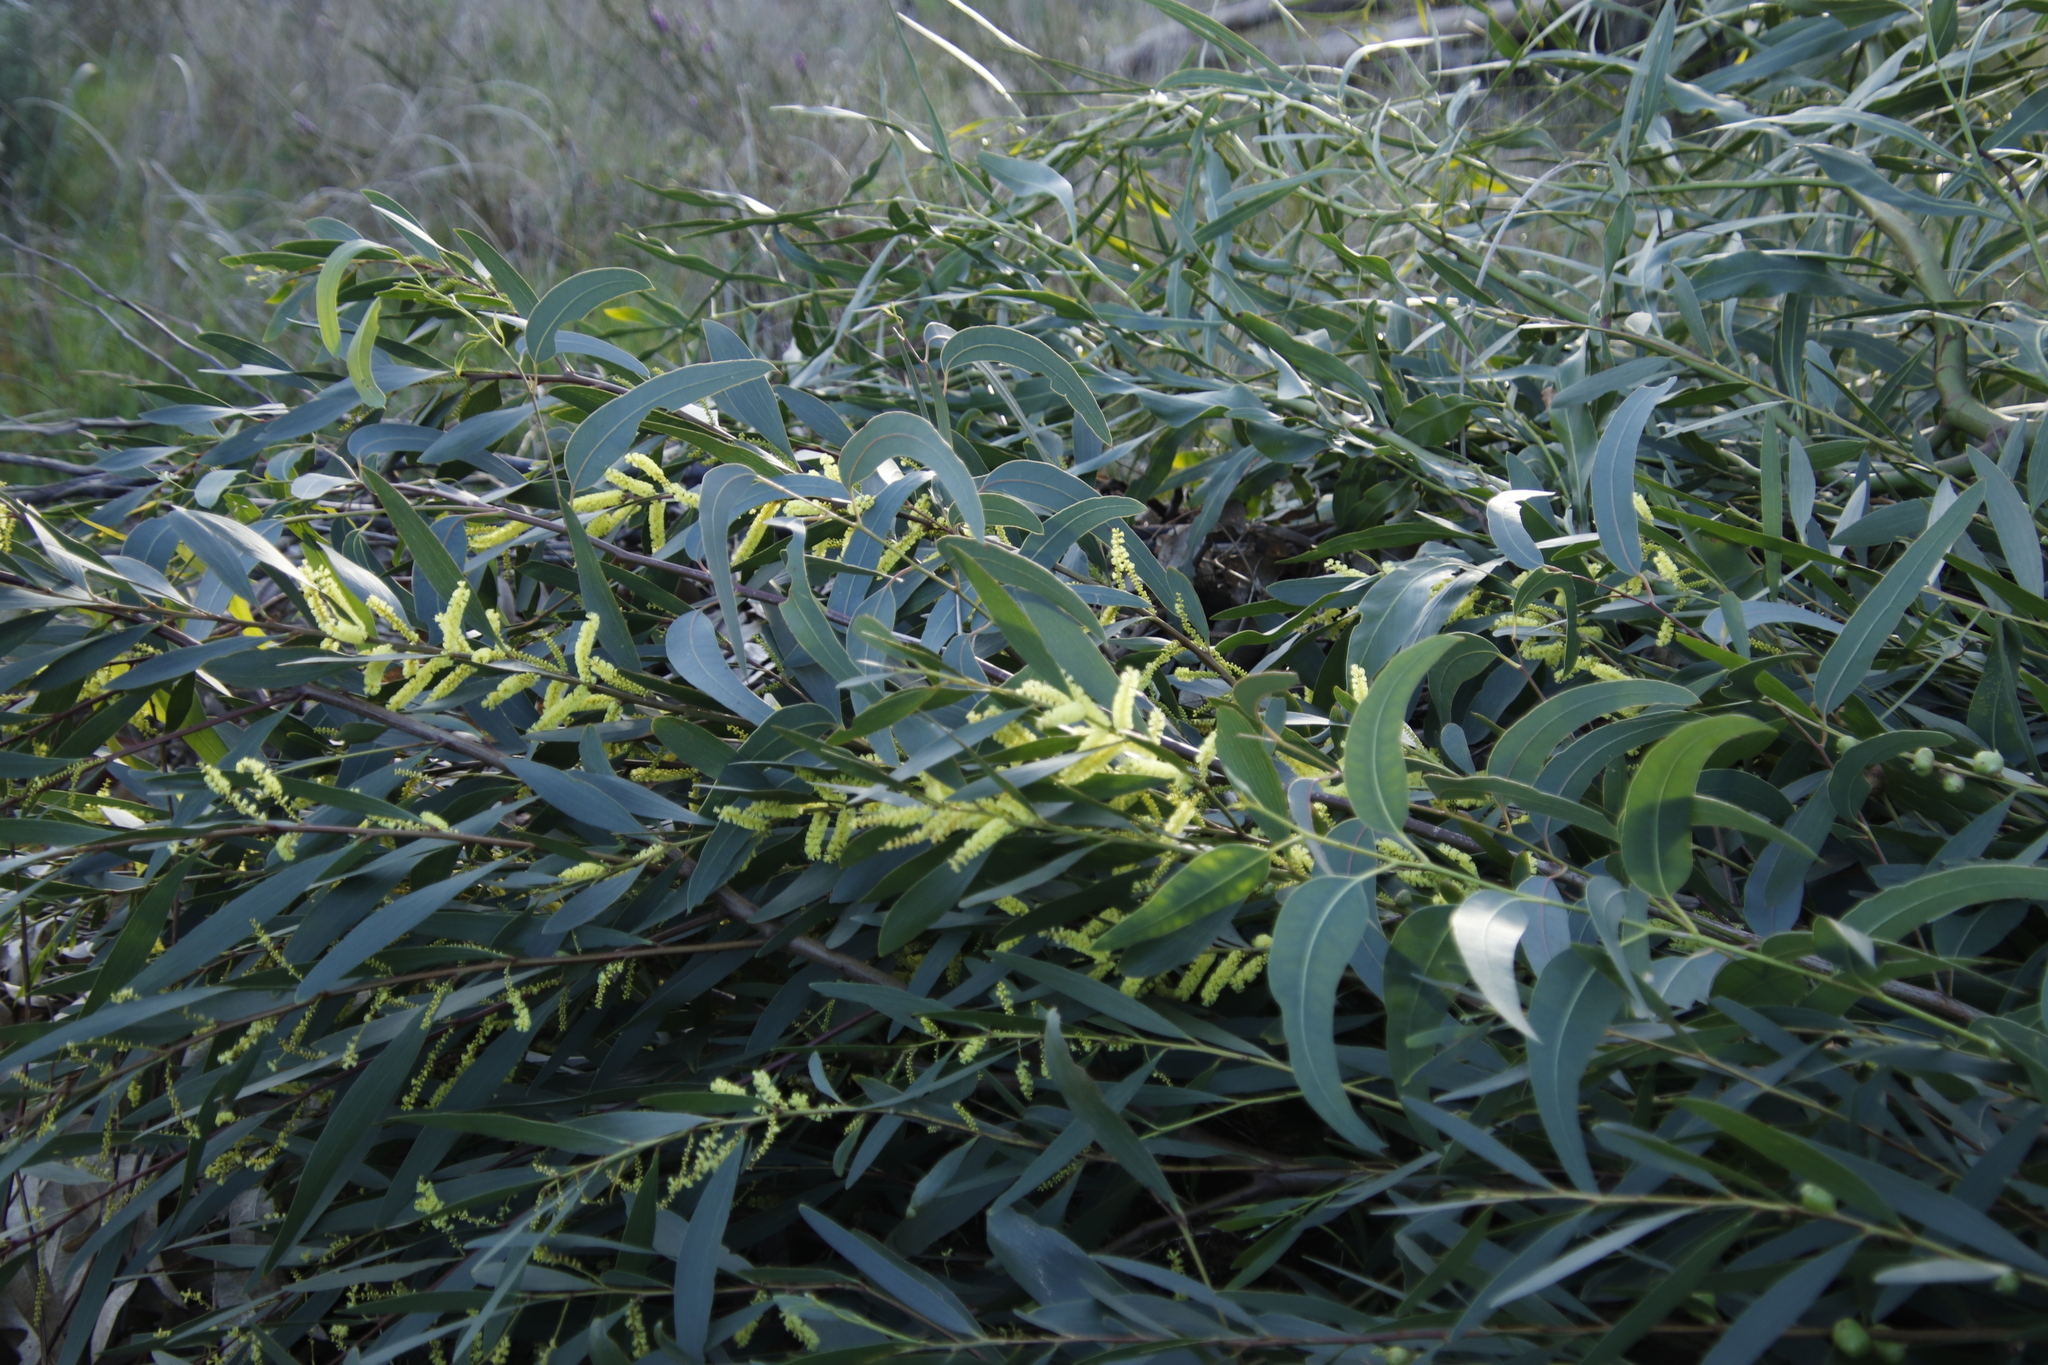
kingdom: Plantae
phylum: Tracheophyta
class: Magnoliopsida
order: Fabales
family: Fabaceae
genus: Acacia
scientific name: Acacia longifolia
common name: Sydney golden wattle
